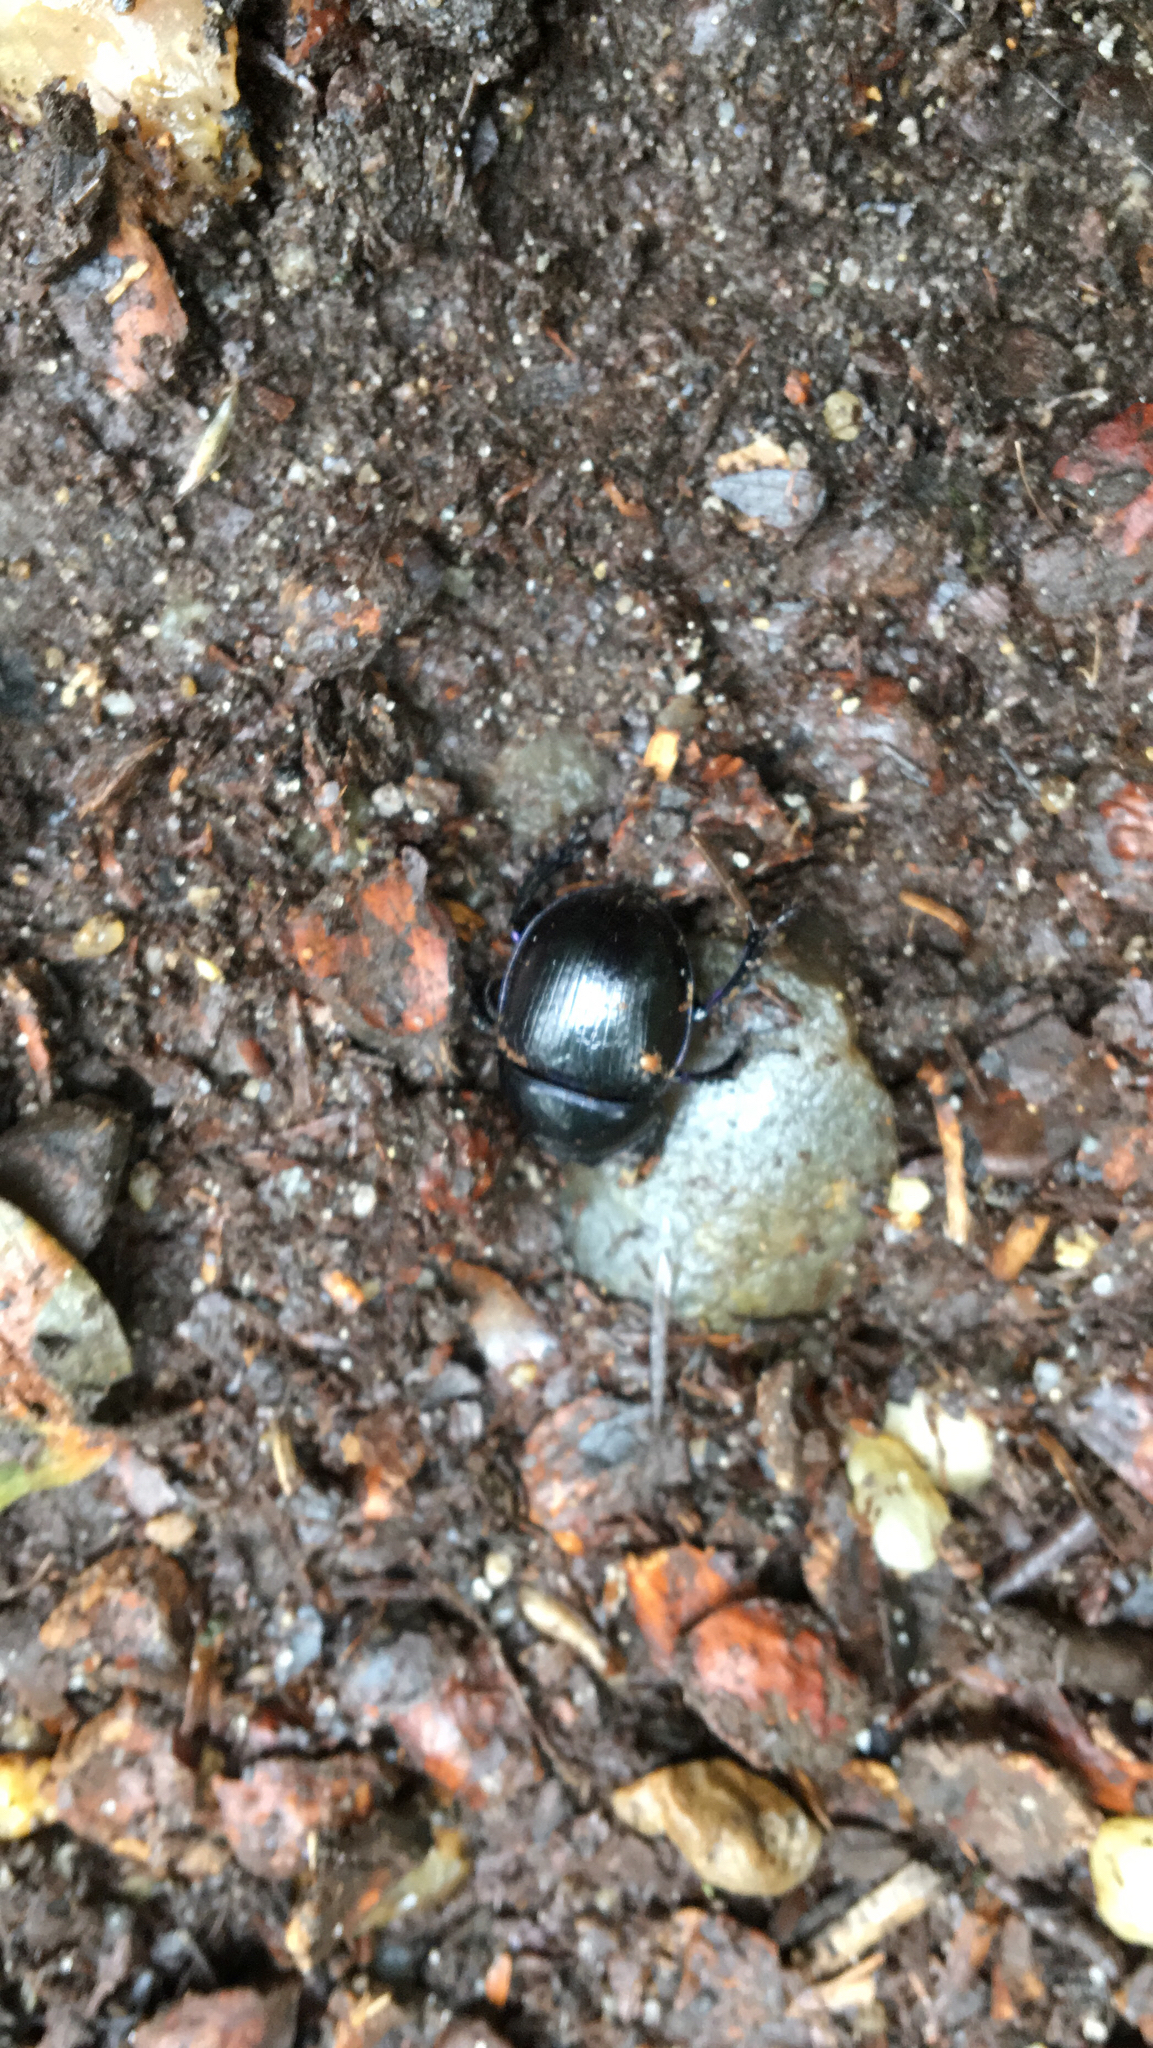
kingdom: Animalia
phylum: Arthropoda
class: Insecta
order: Coleoptera
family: Geotrupidae
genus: Anoplotrupes
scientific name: Anoplotrupes stercorosus
